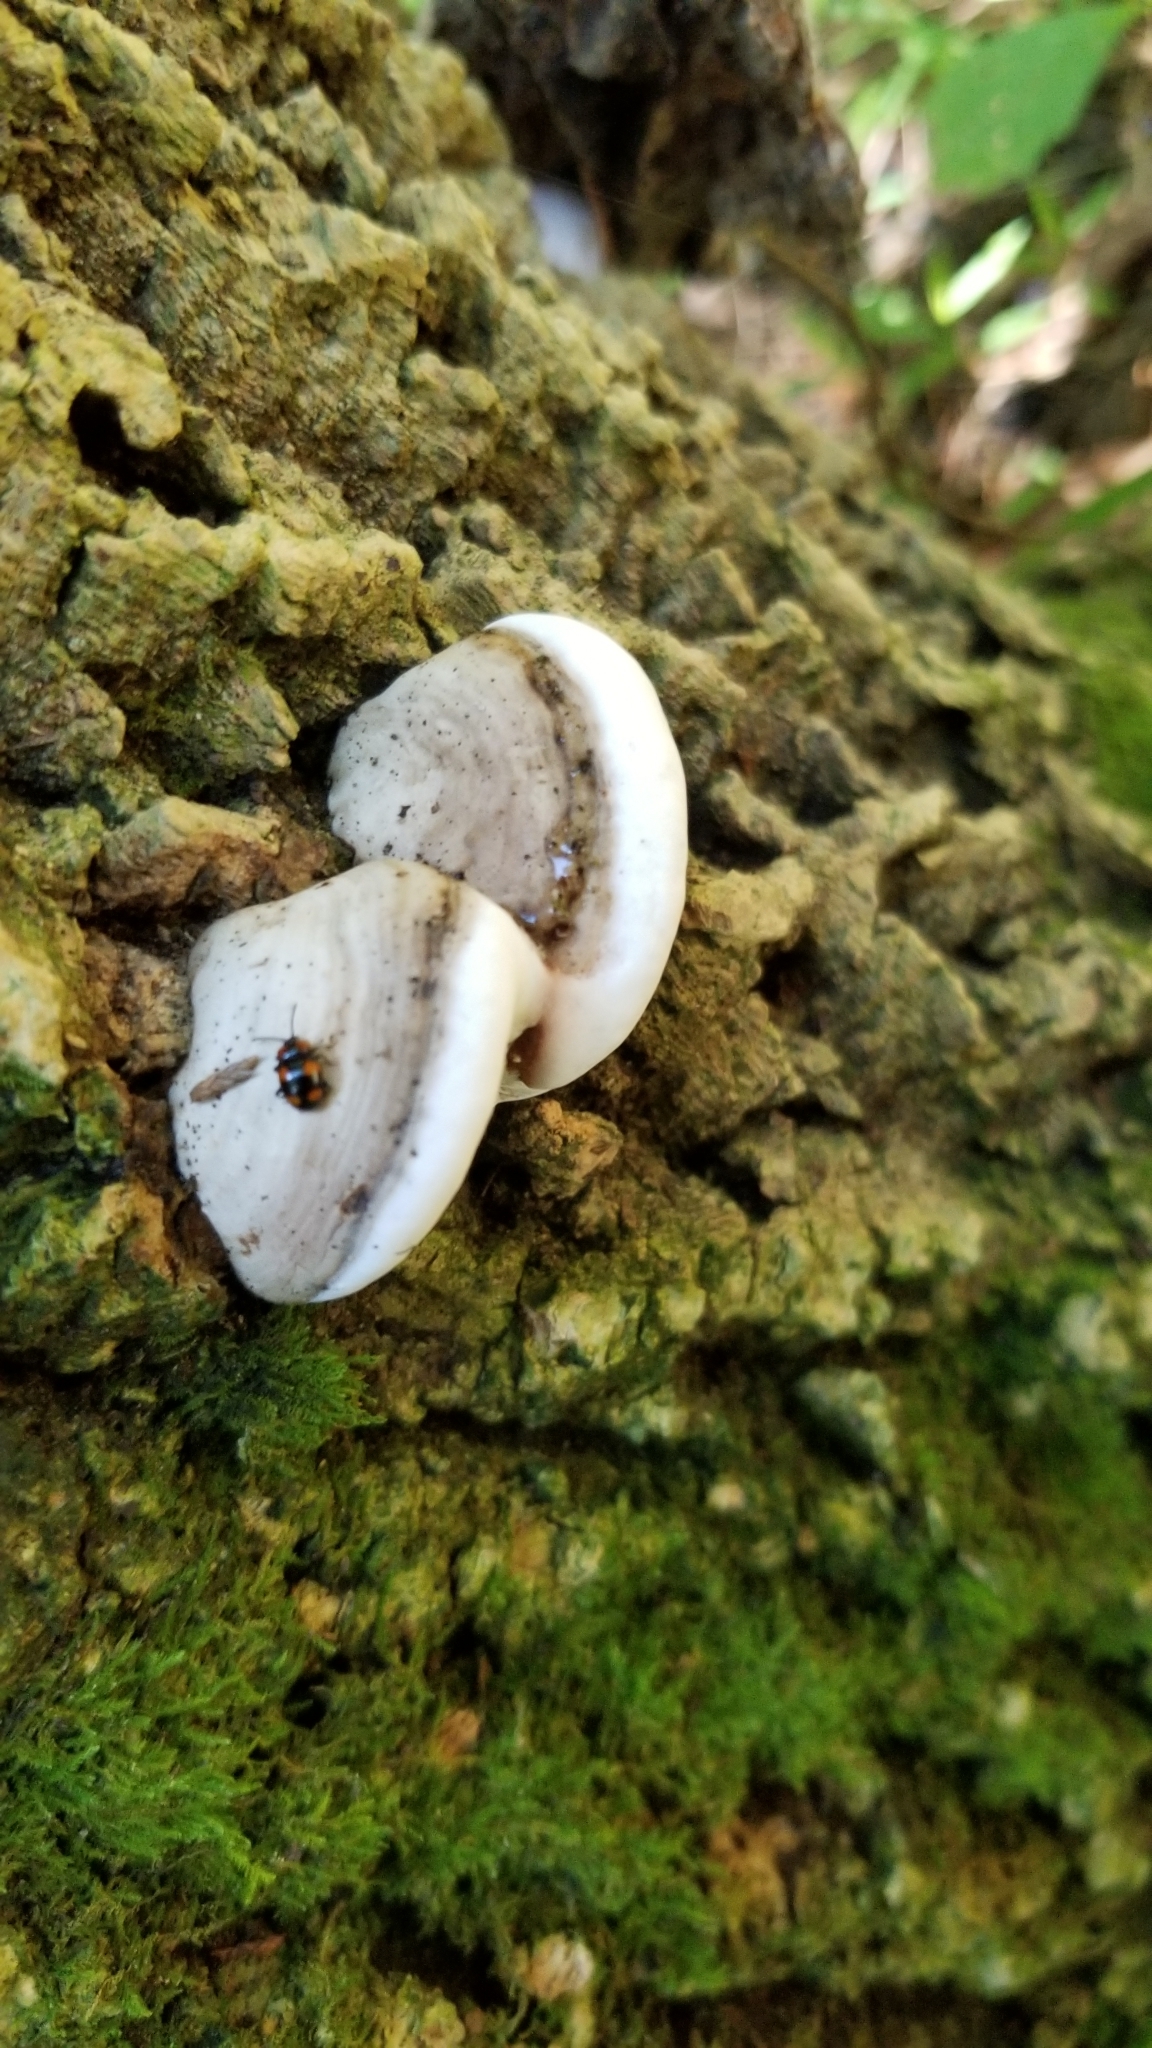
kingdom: Animalia
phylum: Arthropoda
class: Insecta
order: Coleoptera
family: Endomychidae
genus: Mycetina
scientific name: Mycetina perpulchra
